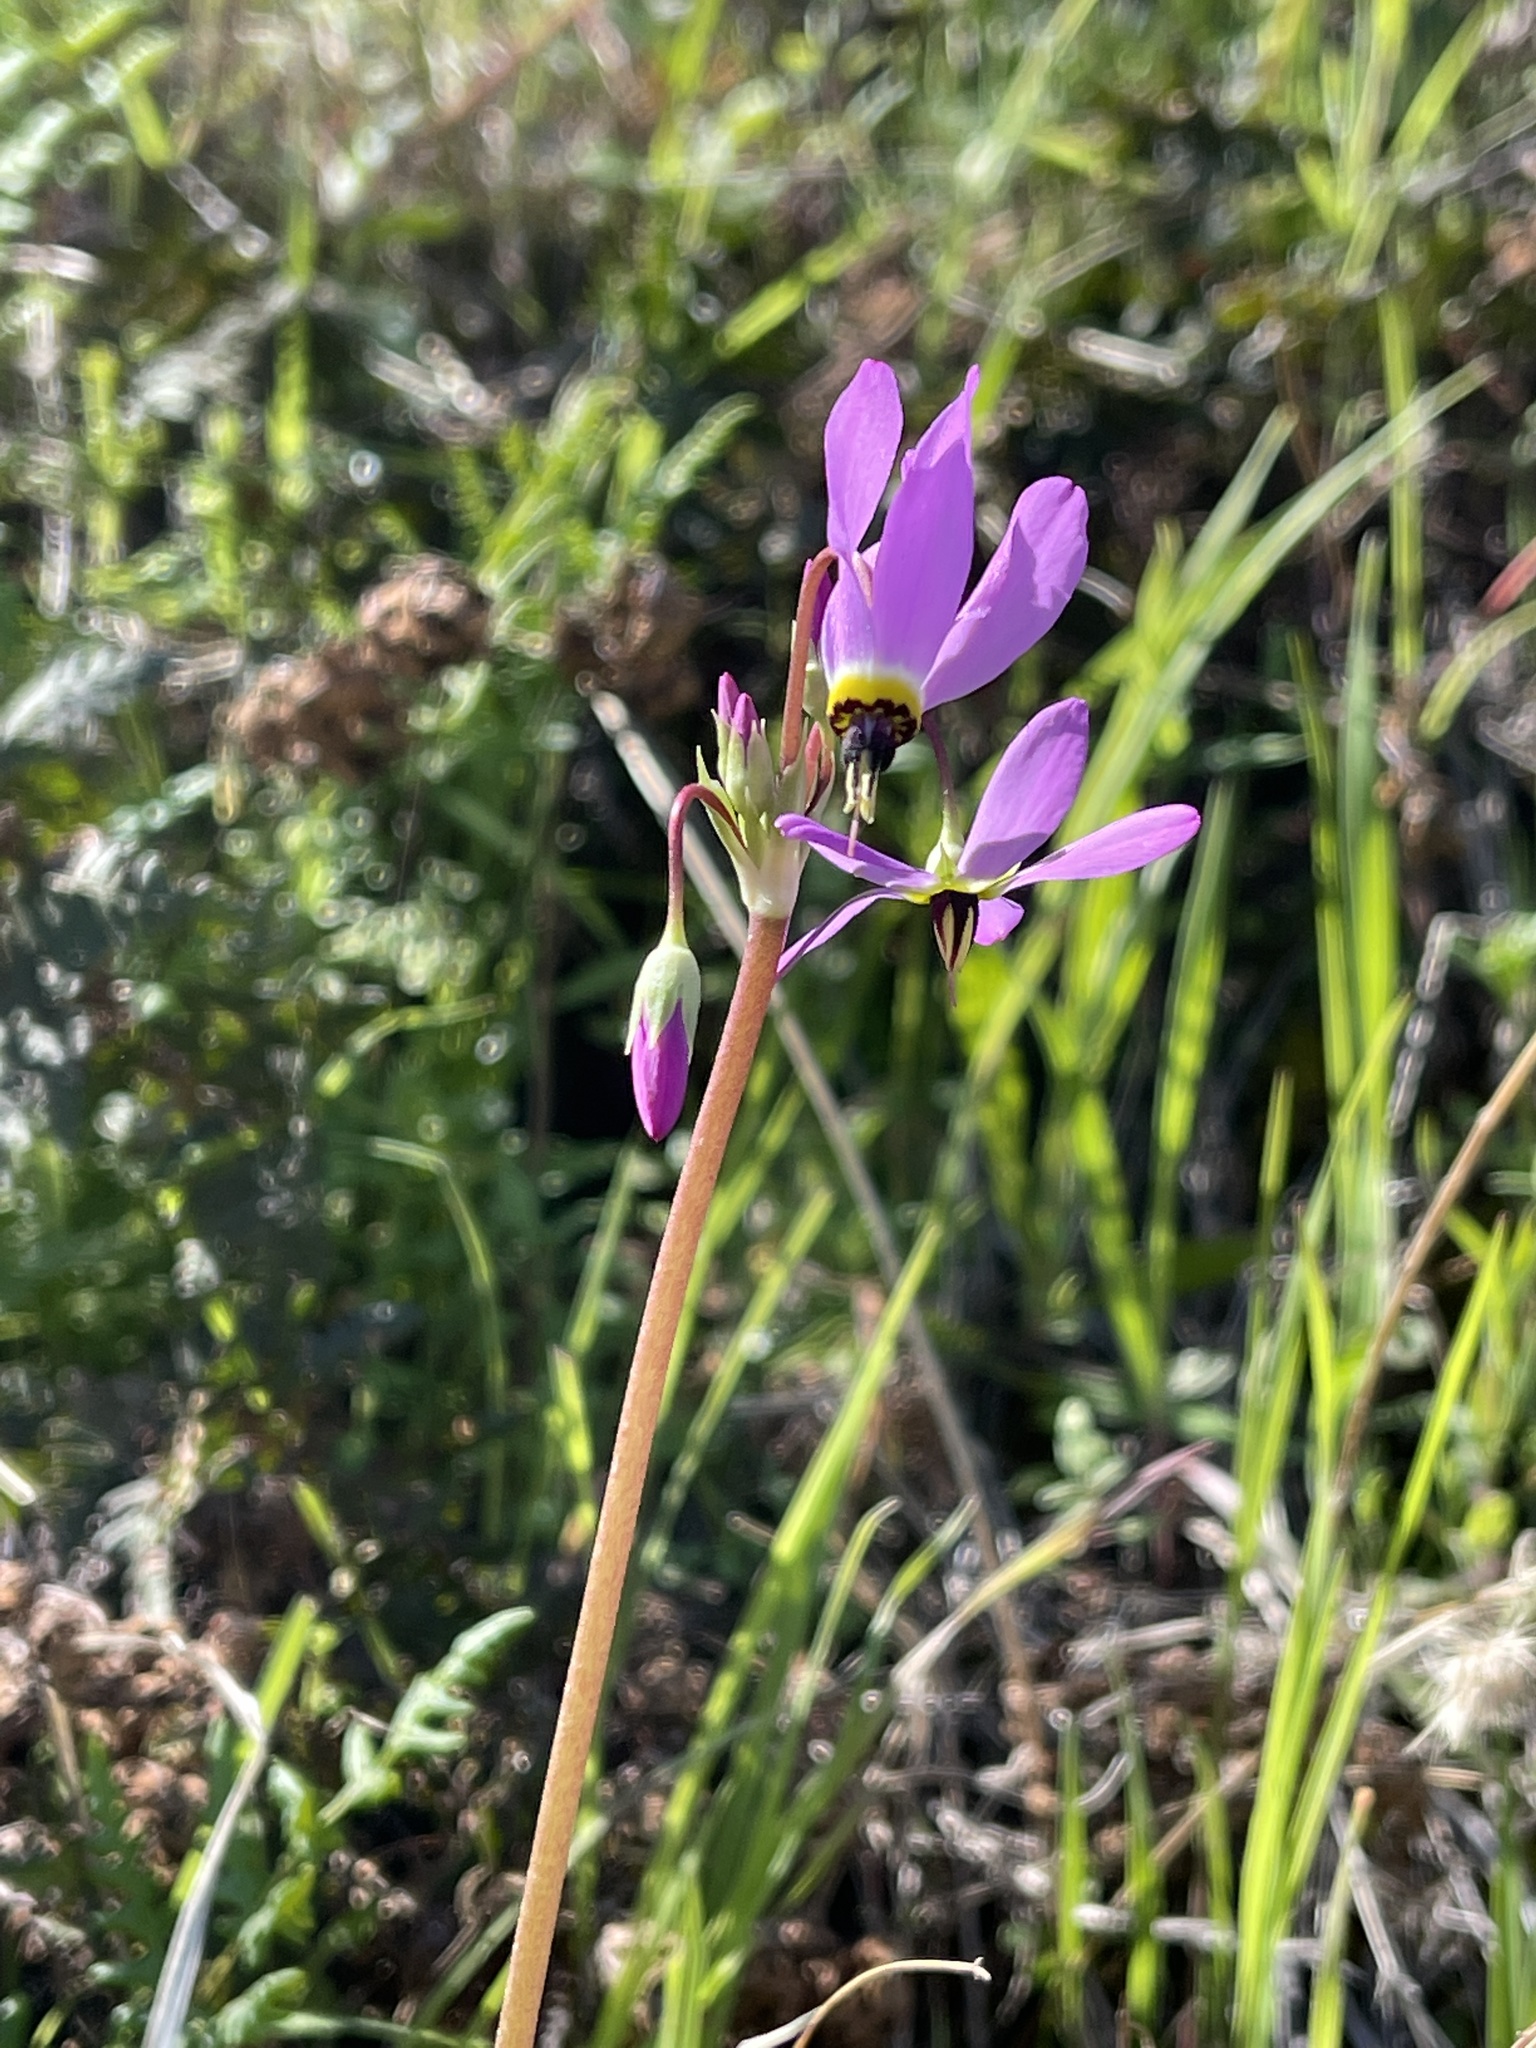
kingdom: Plantae
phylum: Tracheophyta
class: Magnoliopsida
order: Ericales
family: Primulaceae
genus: Dodecatheon
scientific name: Dodecatheon hendersonii
